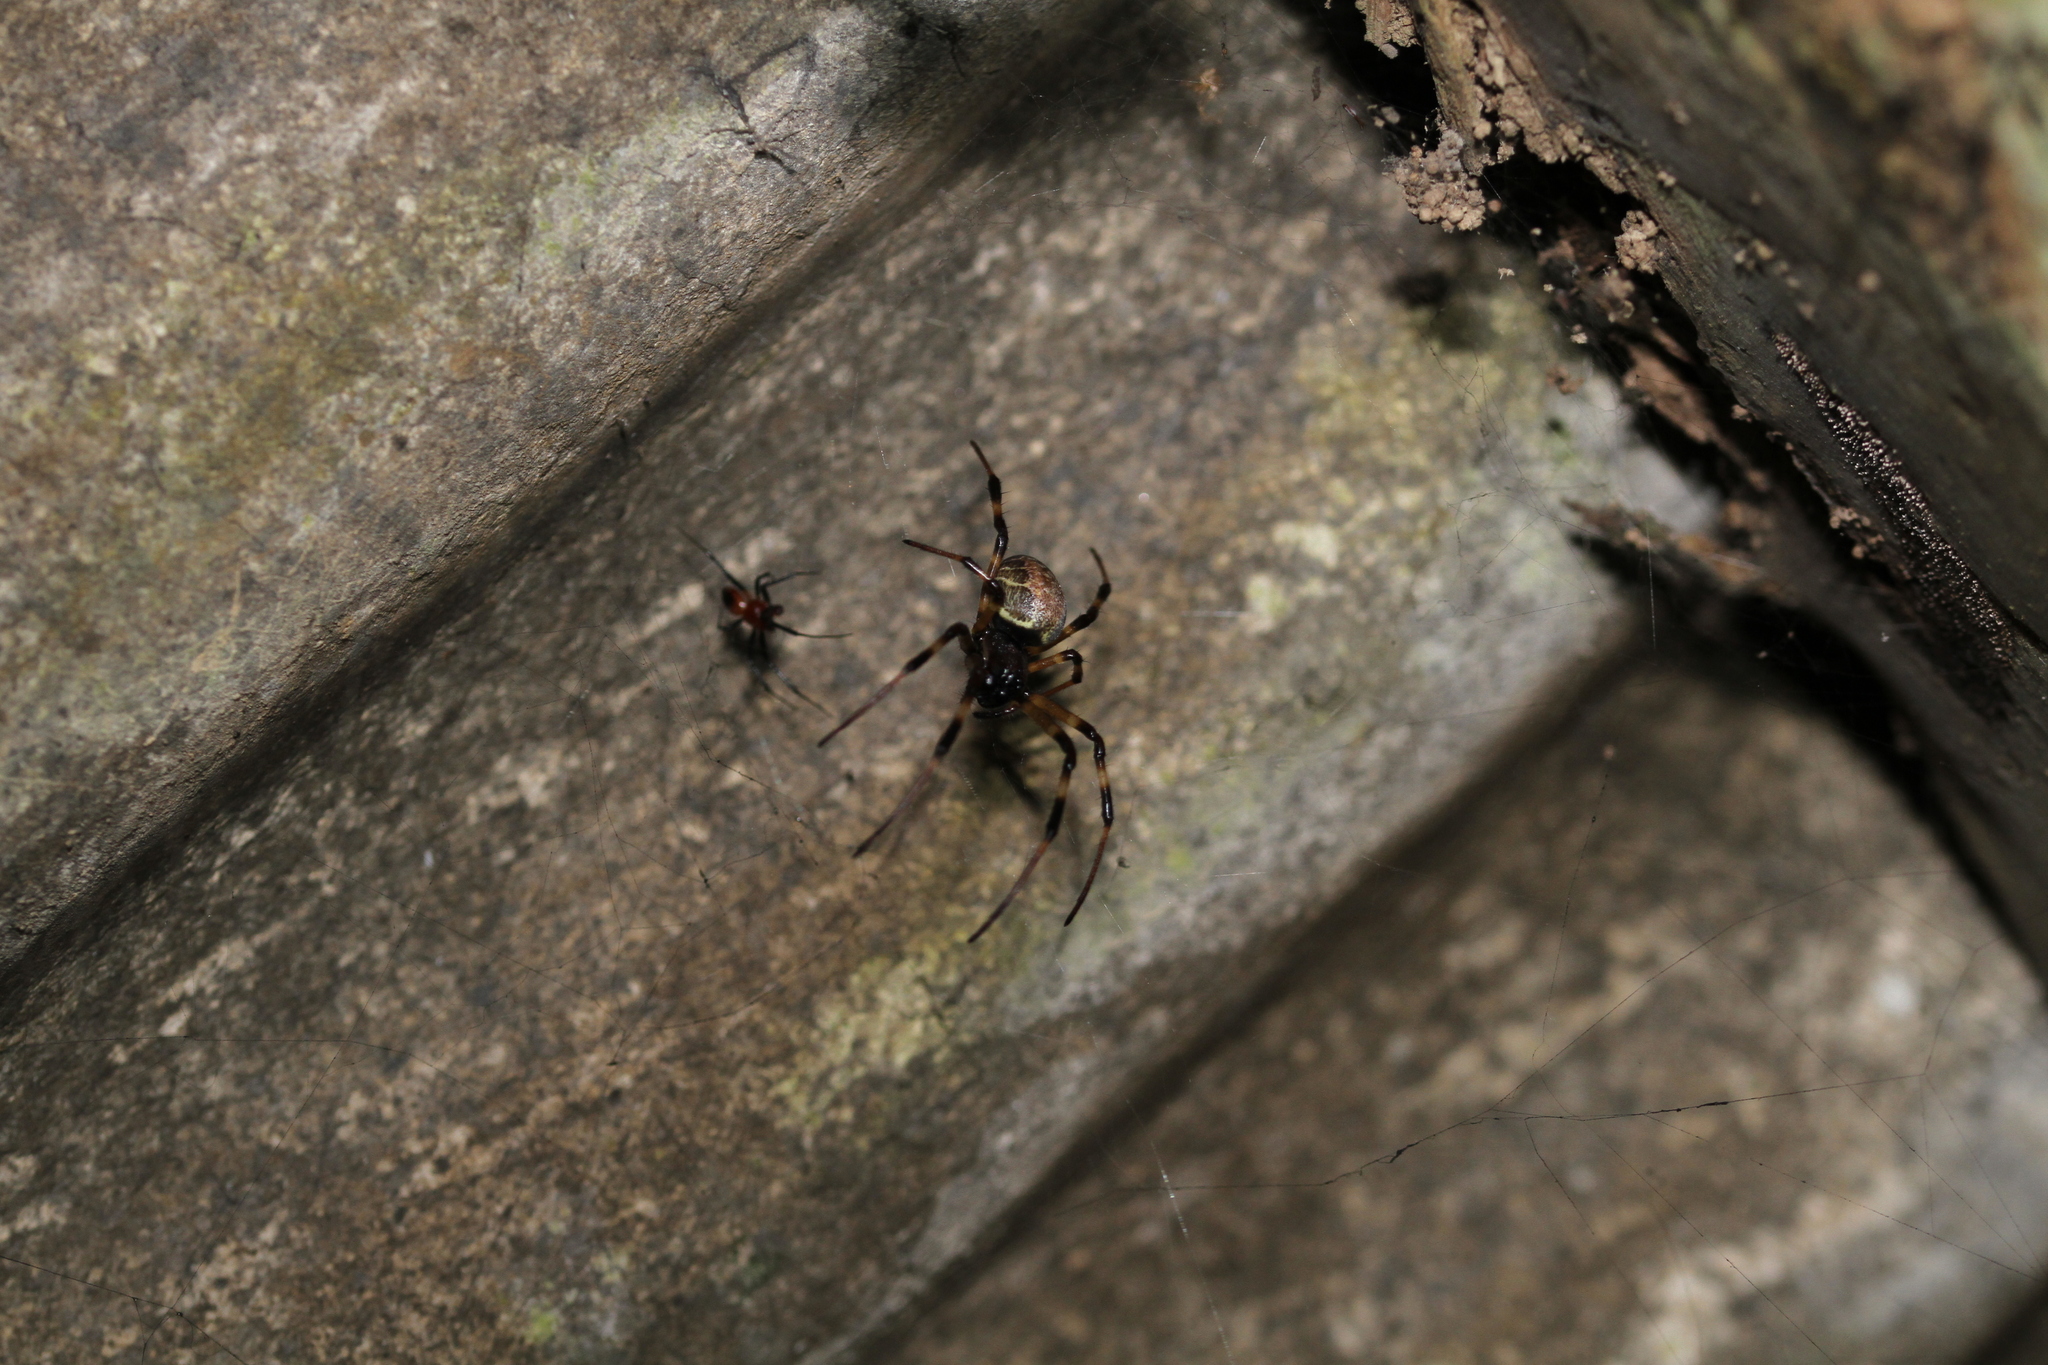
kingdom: Animalia
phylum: Arthropoda
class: Arachnida
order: Araneae
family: Araneidae
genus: Nephilengys
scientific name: Nephilengys malabarensis
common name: Asian hermit spider
